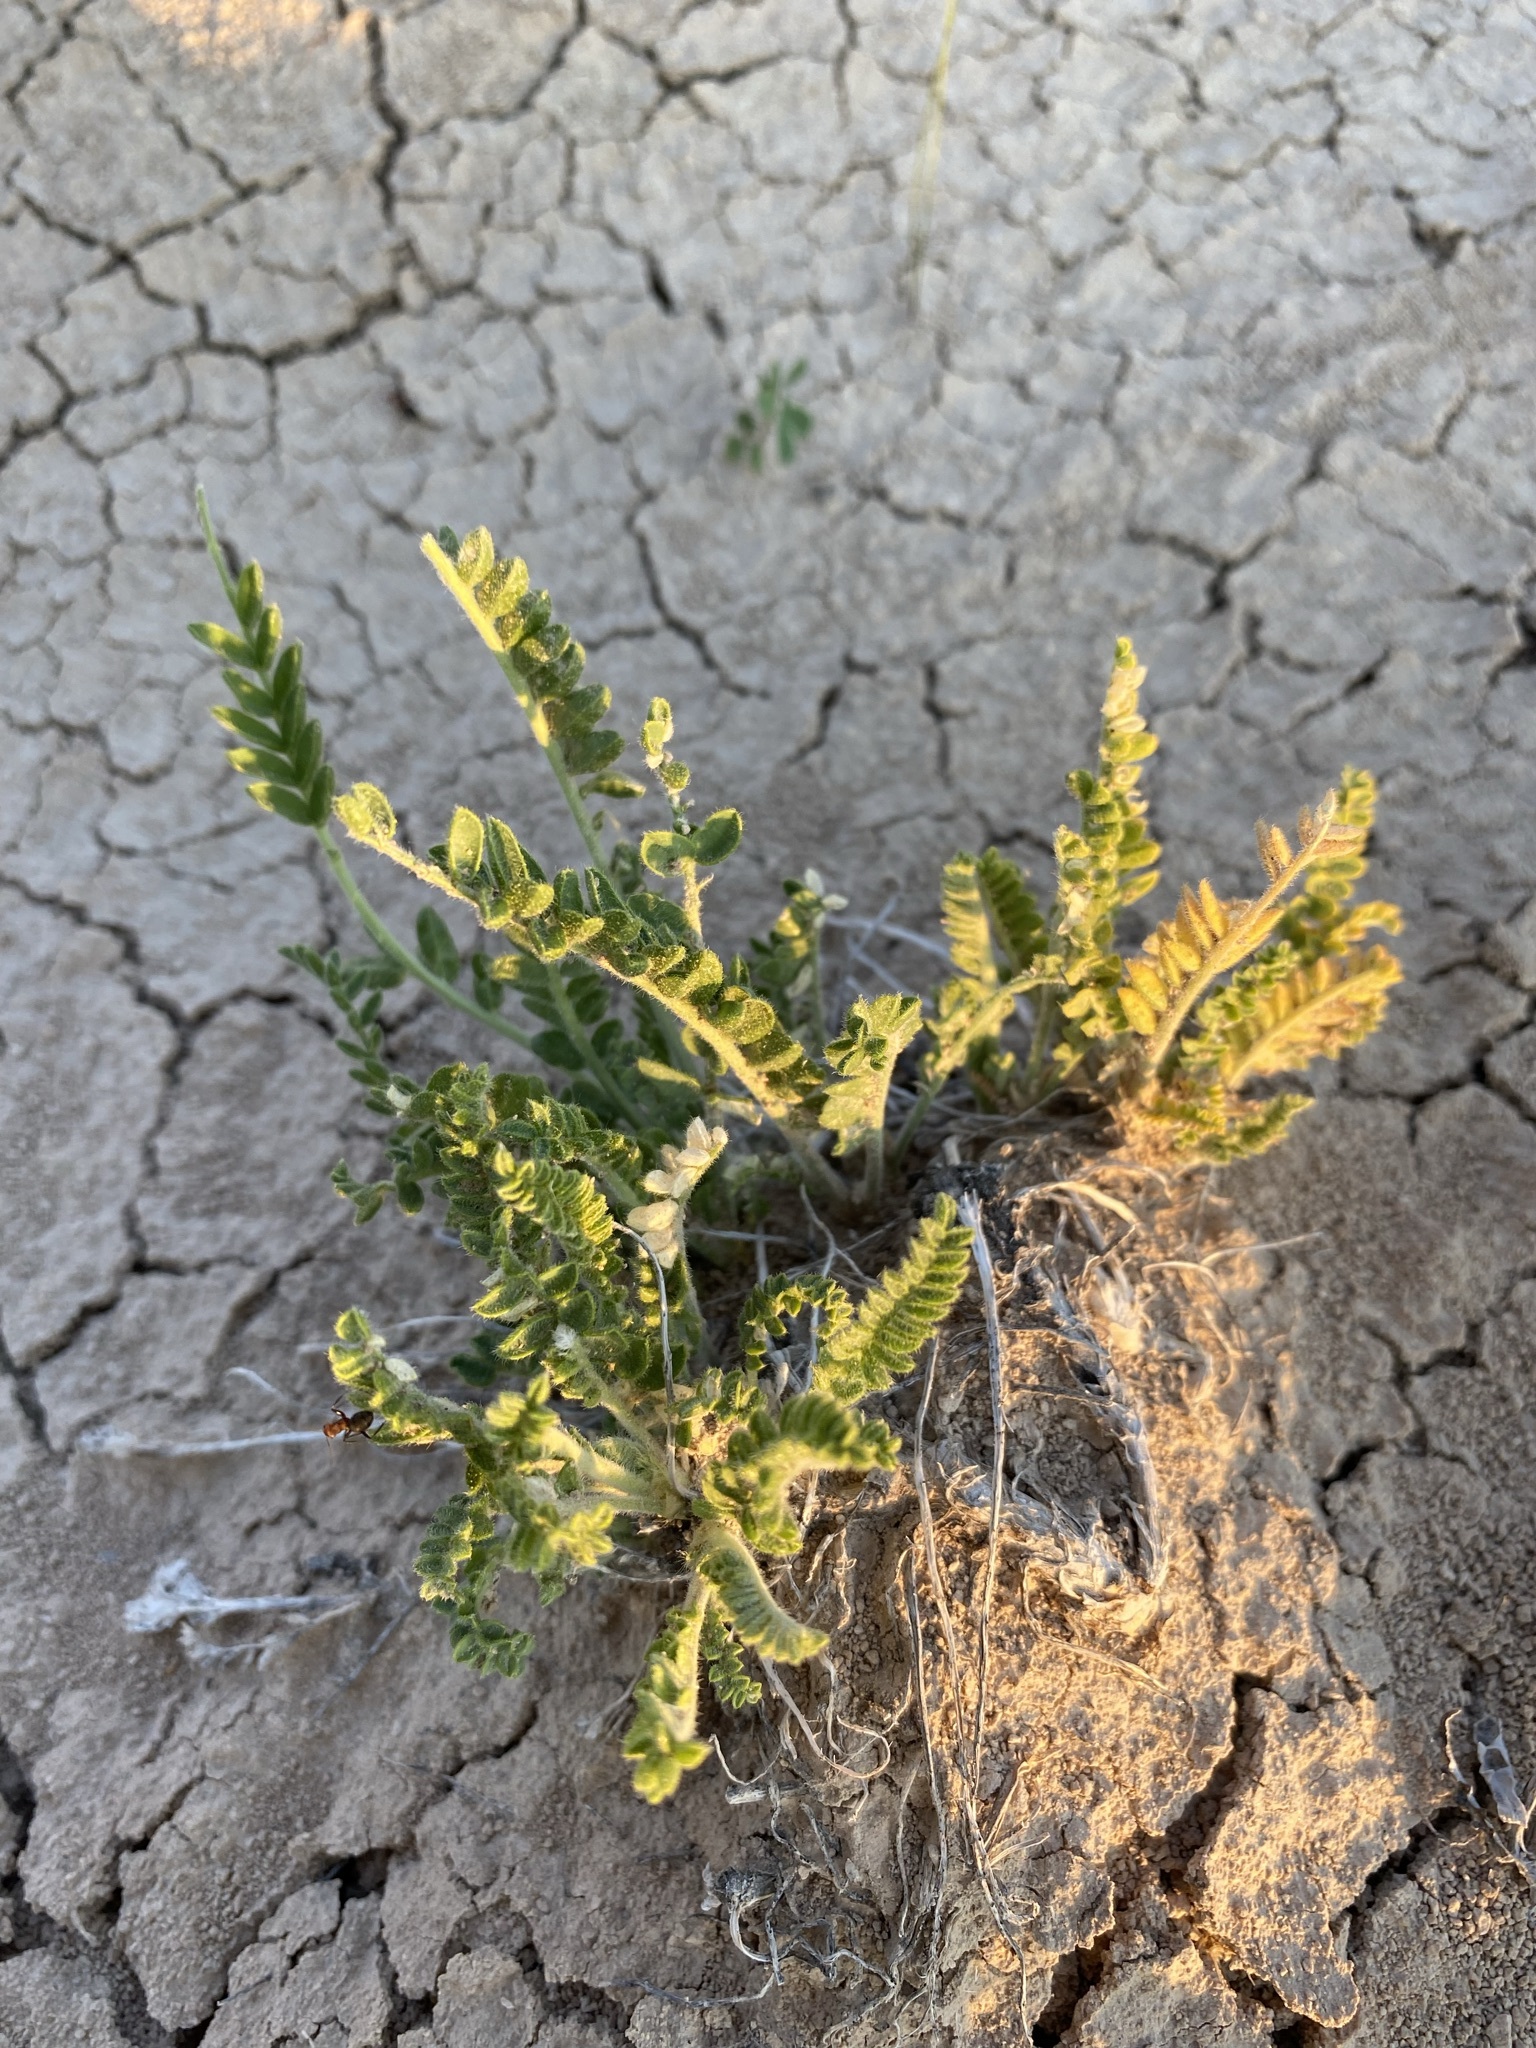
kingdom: Plantae
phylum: Tracheophyta
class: Magnoliopsida
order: Fabales
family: Fabaceae
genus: Oxytropis
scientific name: Oxytropis borealis
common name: Boreal locoweed
